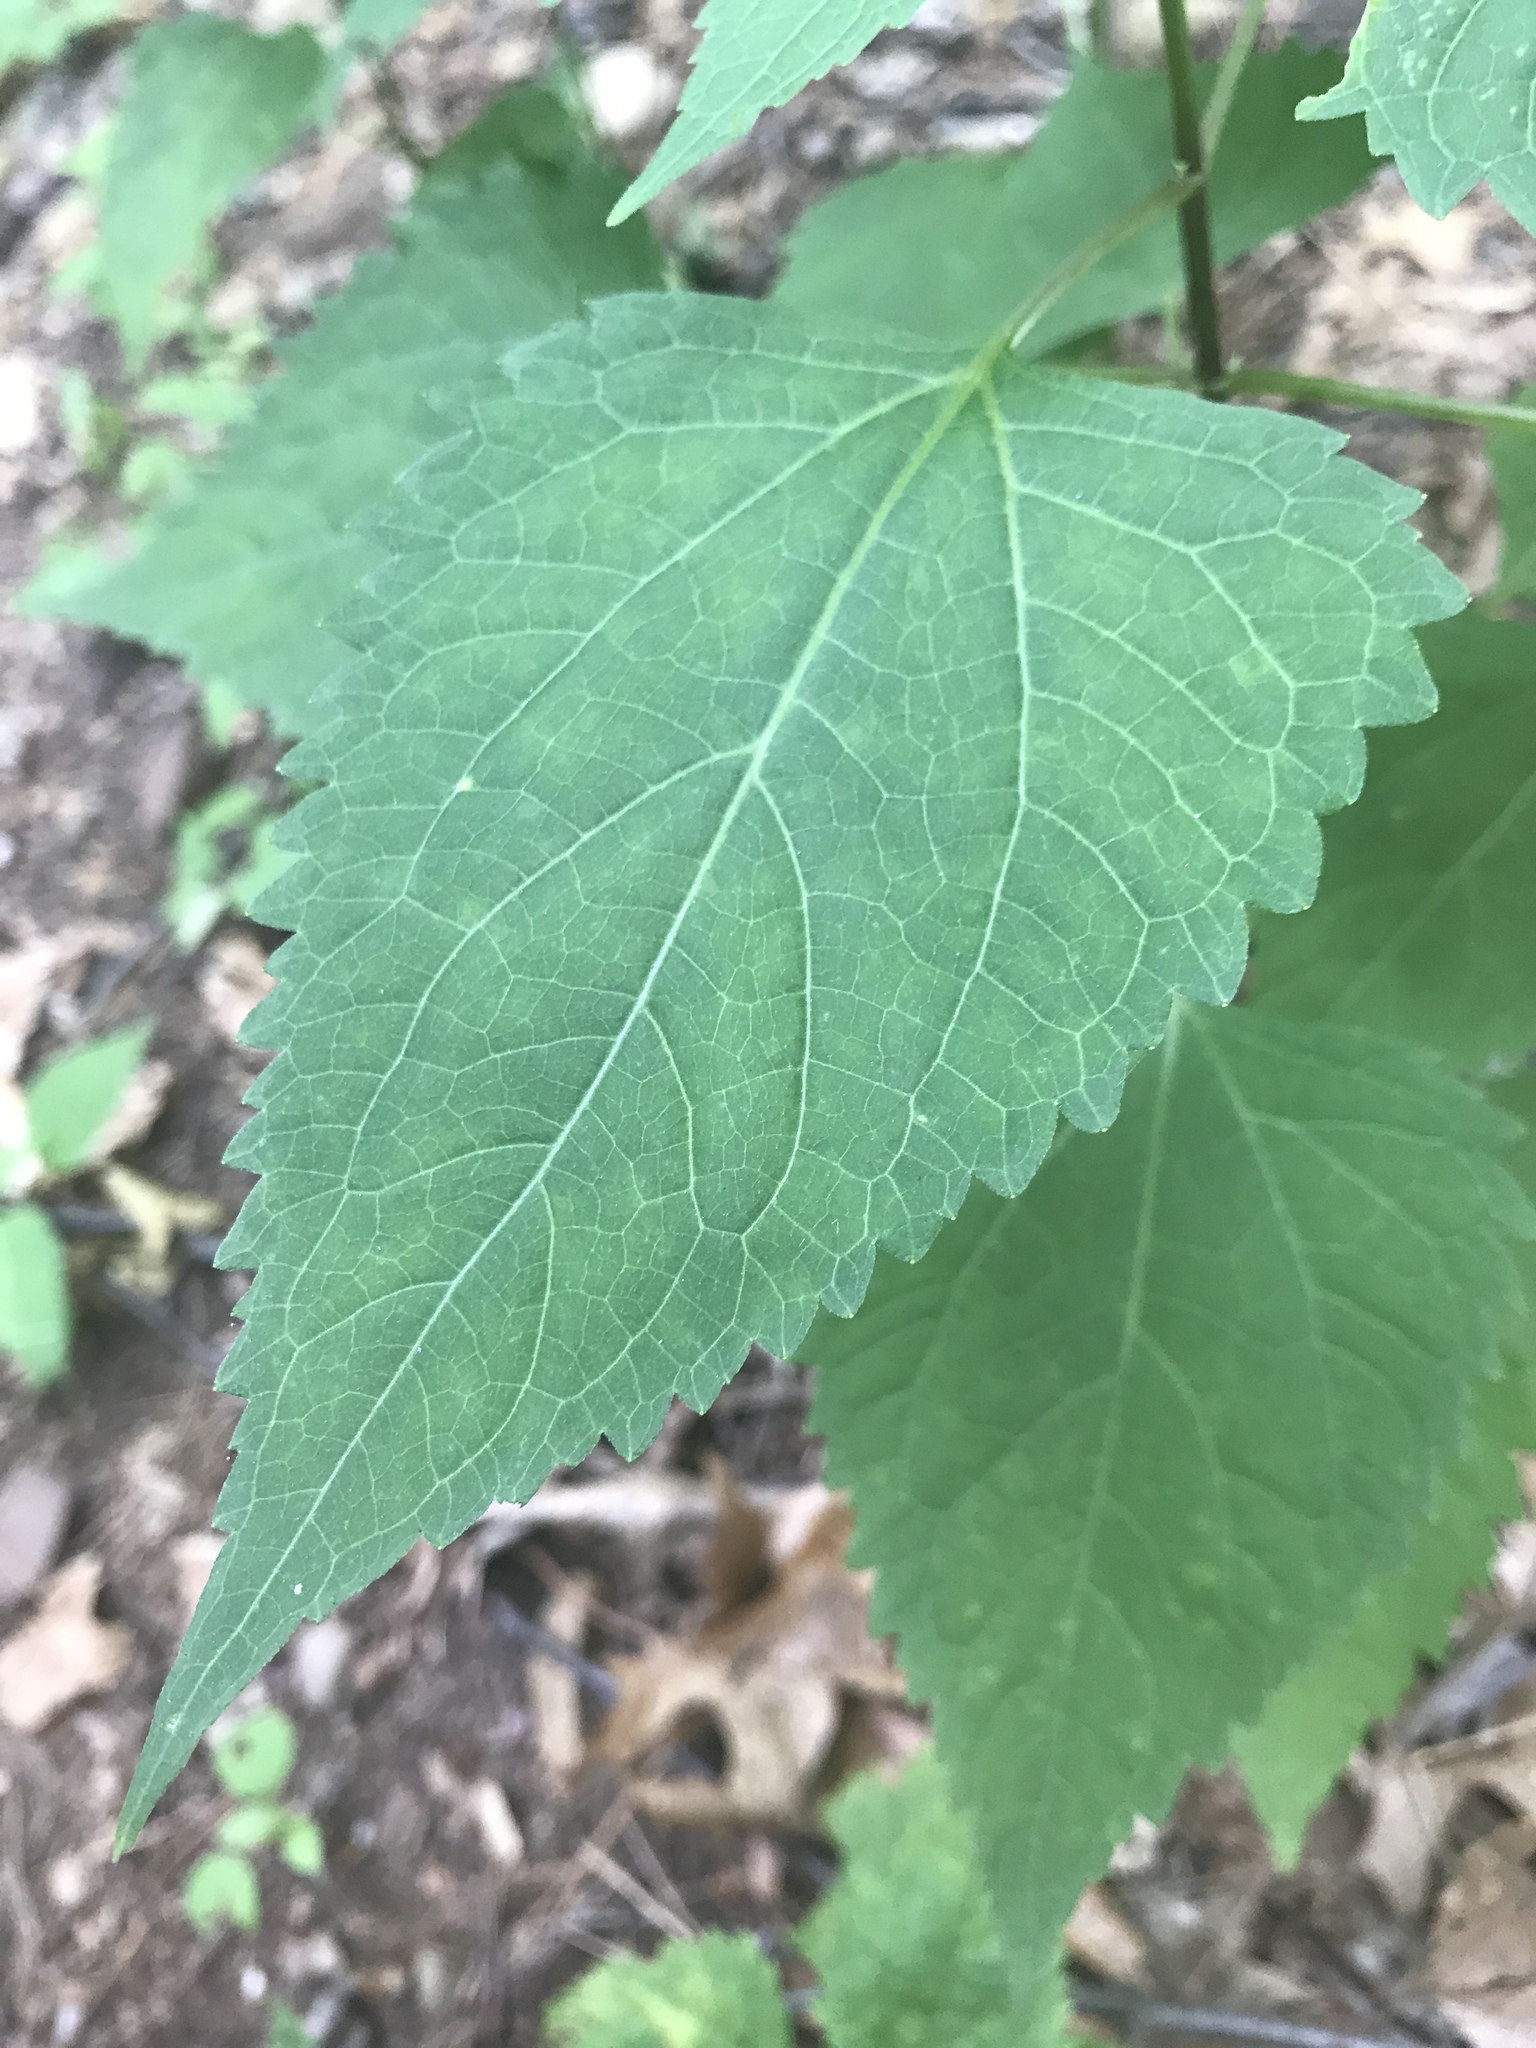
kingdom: Plantae
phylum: Tracheophyta
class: Magnoliopsida
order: Asterales
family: Asteraceae
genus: Ageratina
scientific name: Ageratina altissima
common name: White snakeroot
